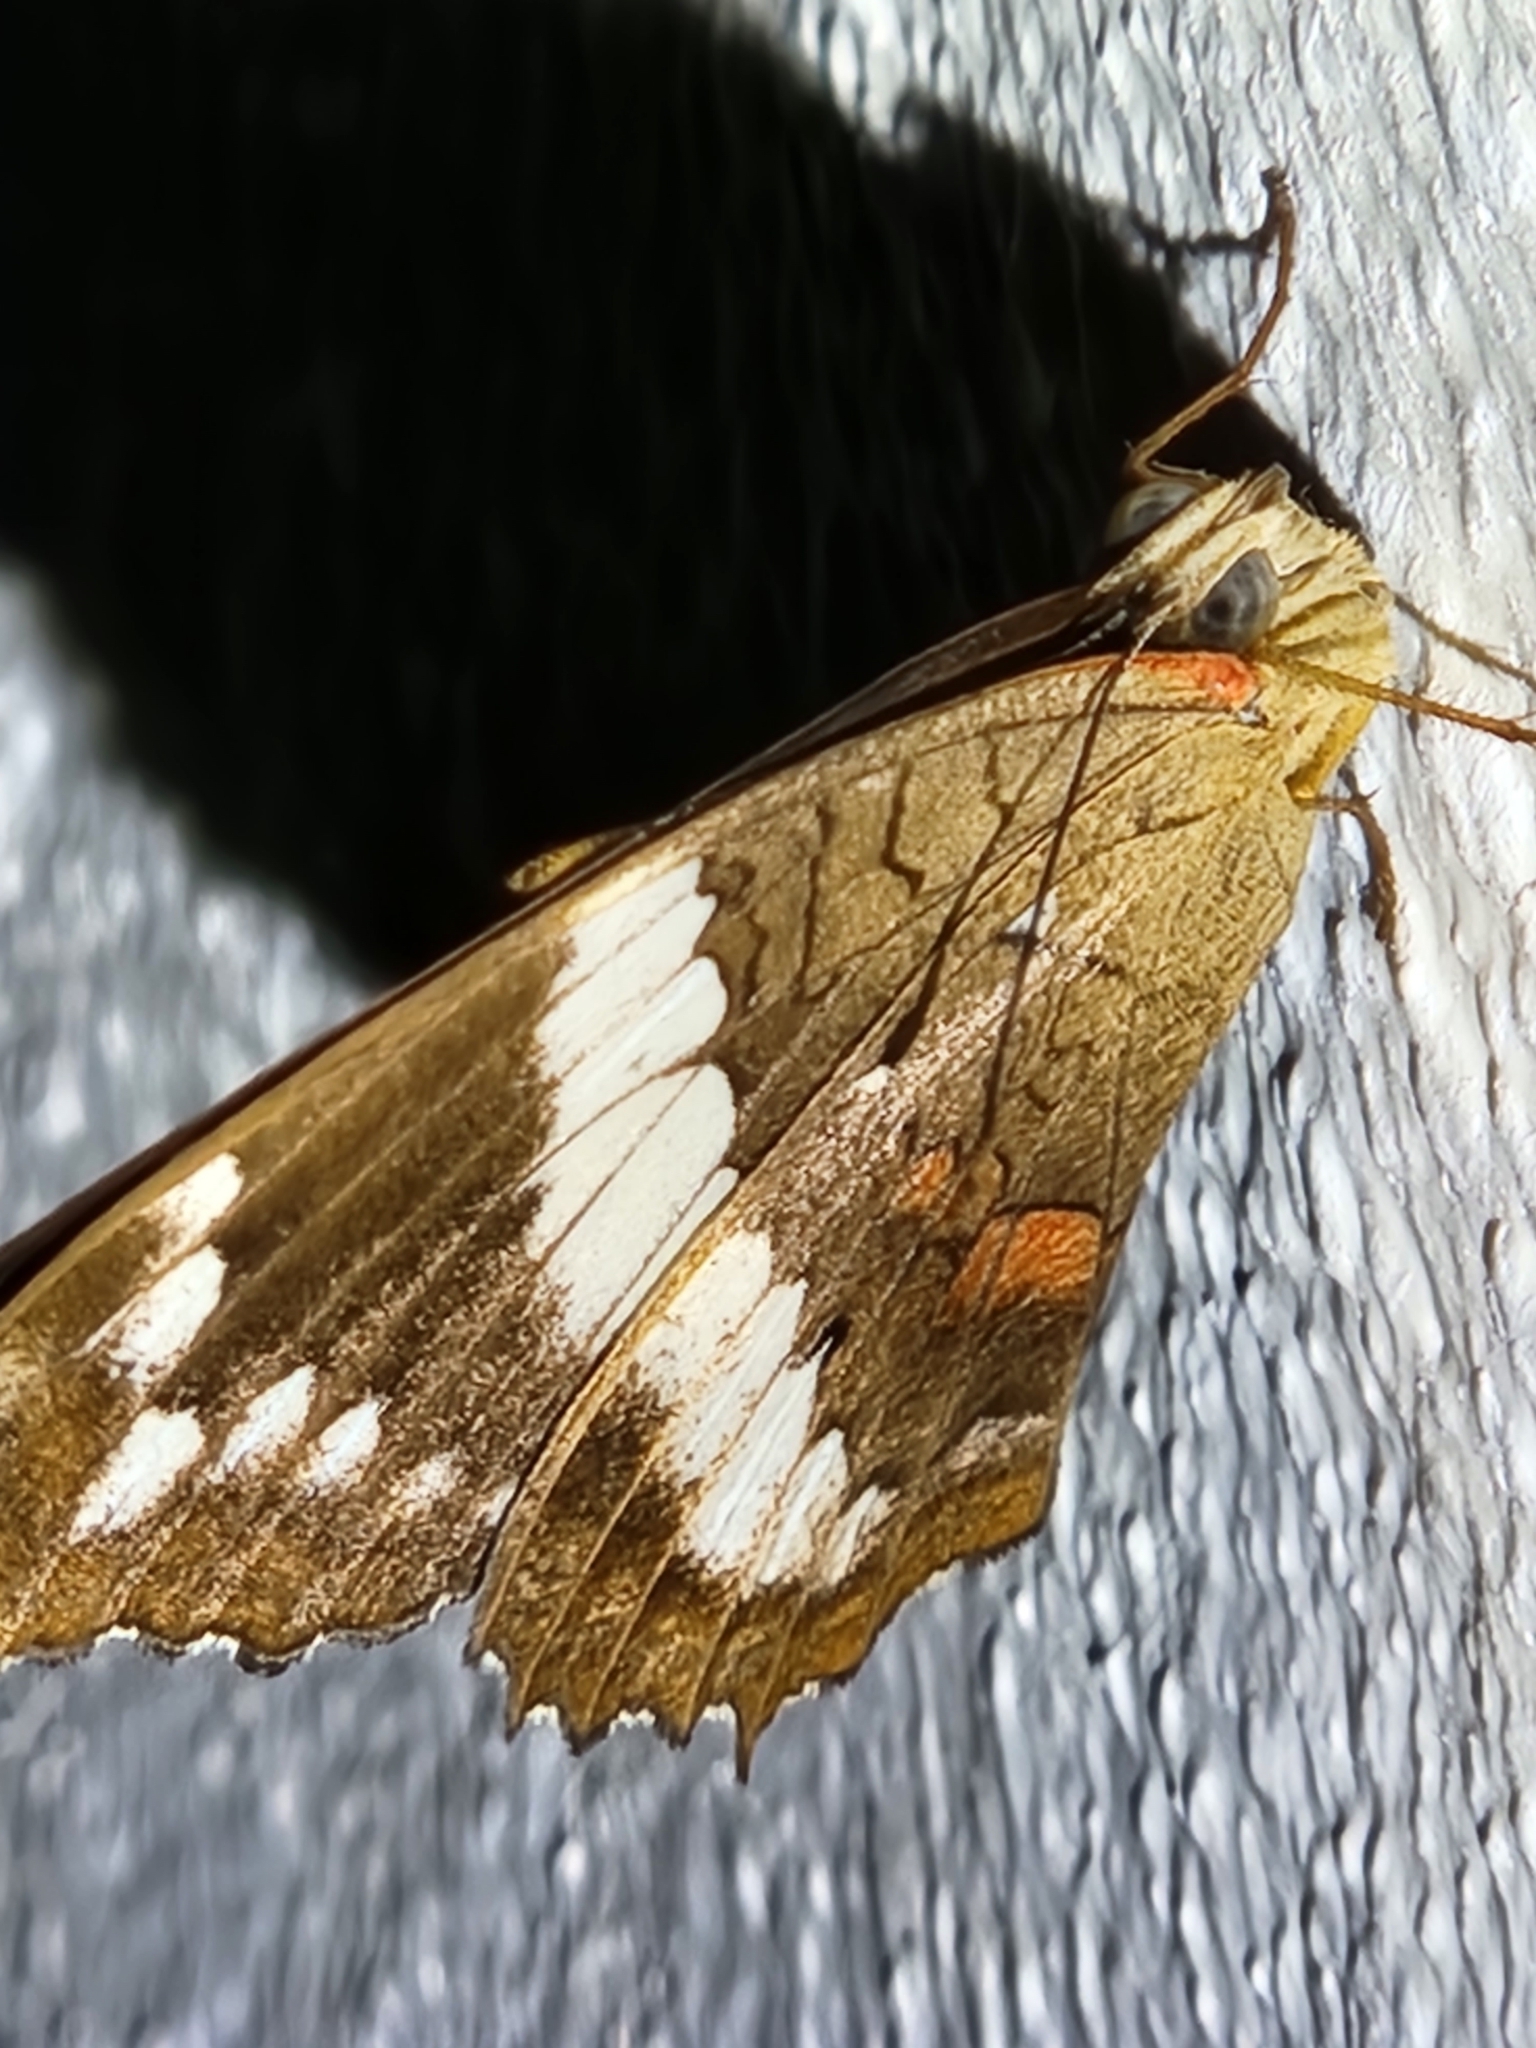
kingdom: Animalia
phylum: Arthropoda
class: Insecta
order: Lepidoptera
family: Nymphalidae
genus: Anartia
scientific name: Anartia fatima
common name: Banded peacock
